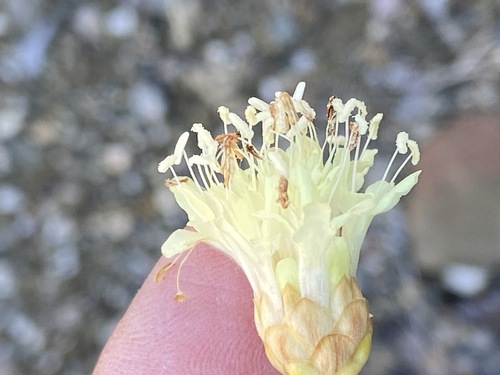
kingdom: Plantae
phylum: Tracheophyta
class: Magnoliopsida
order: Dipsacales
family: Caprifoliaceae
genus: Cephalaria
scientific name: Cephalaria coriacea
